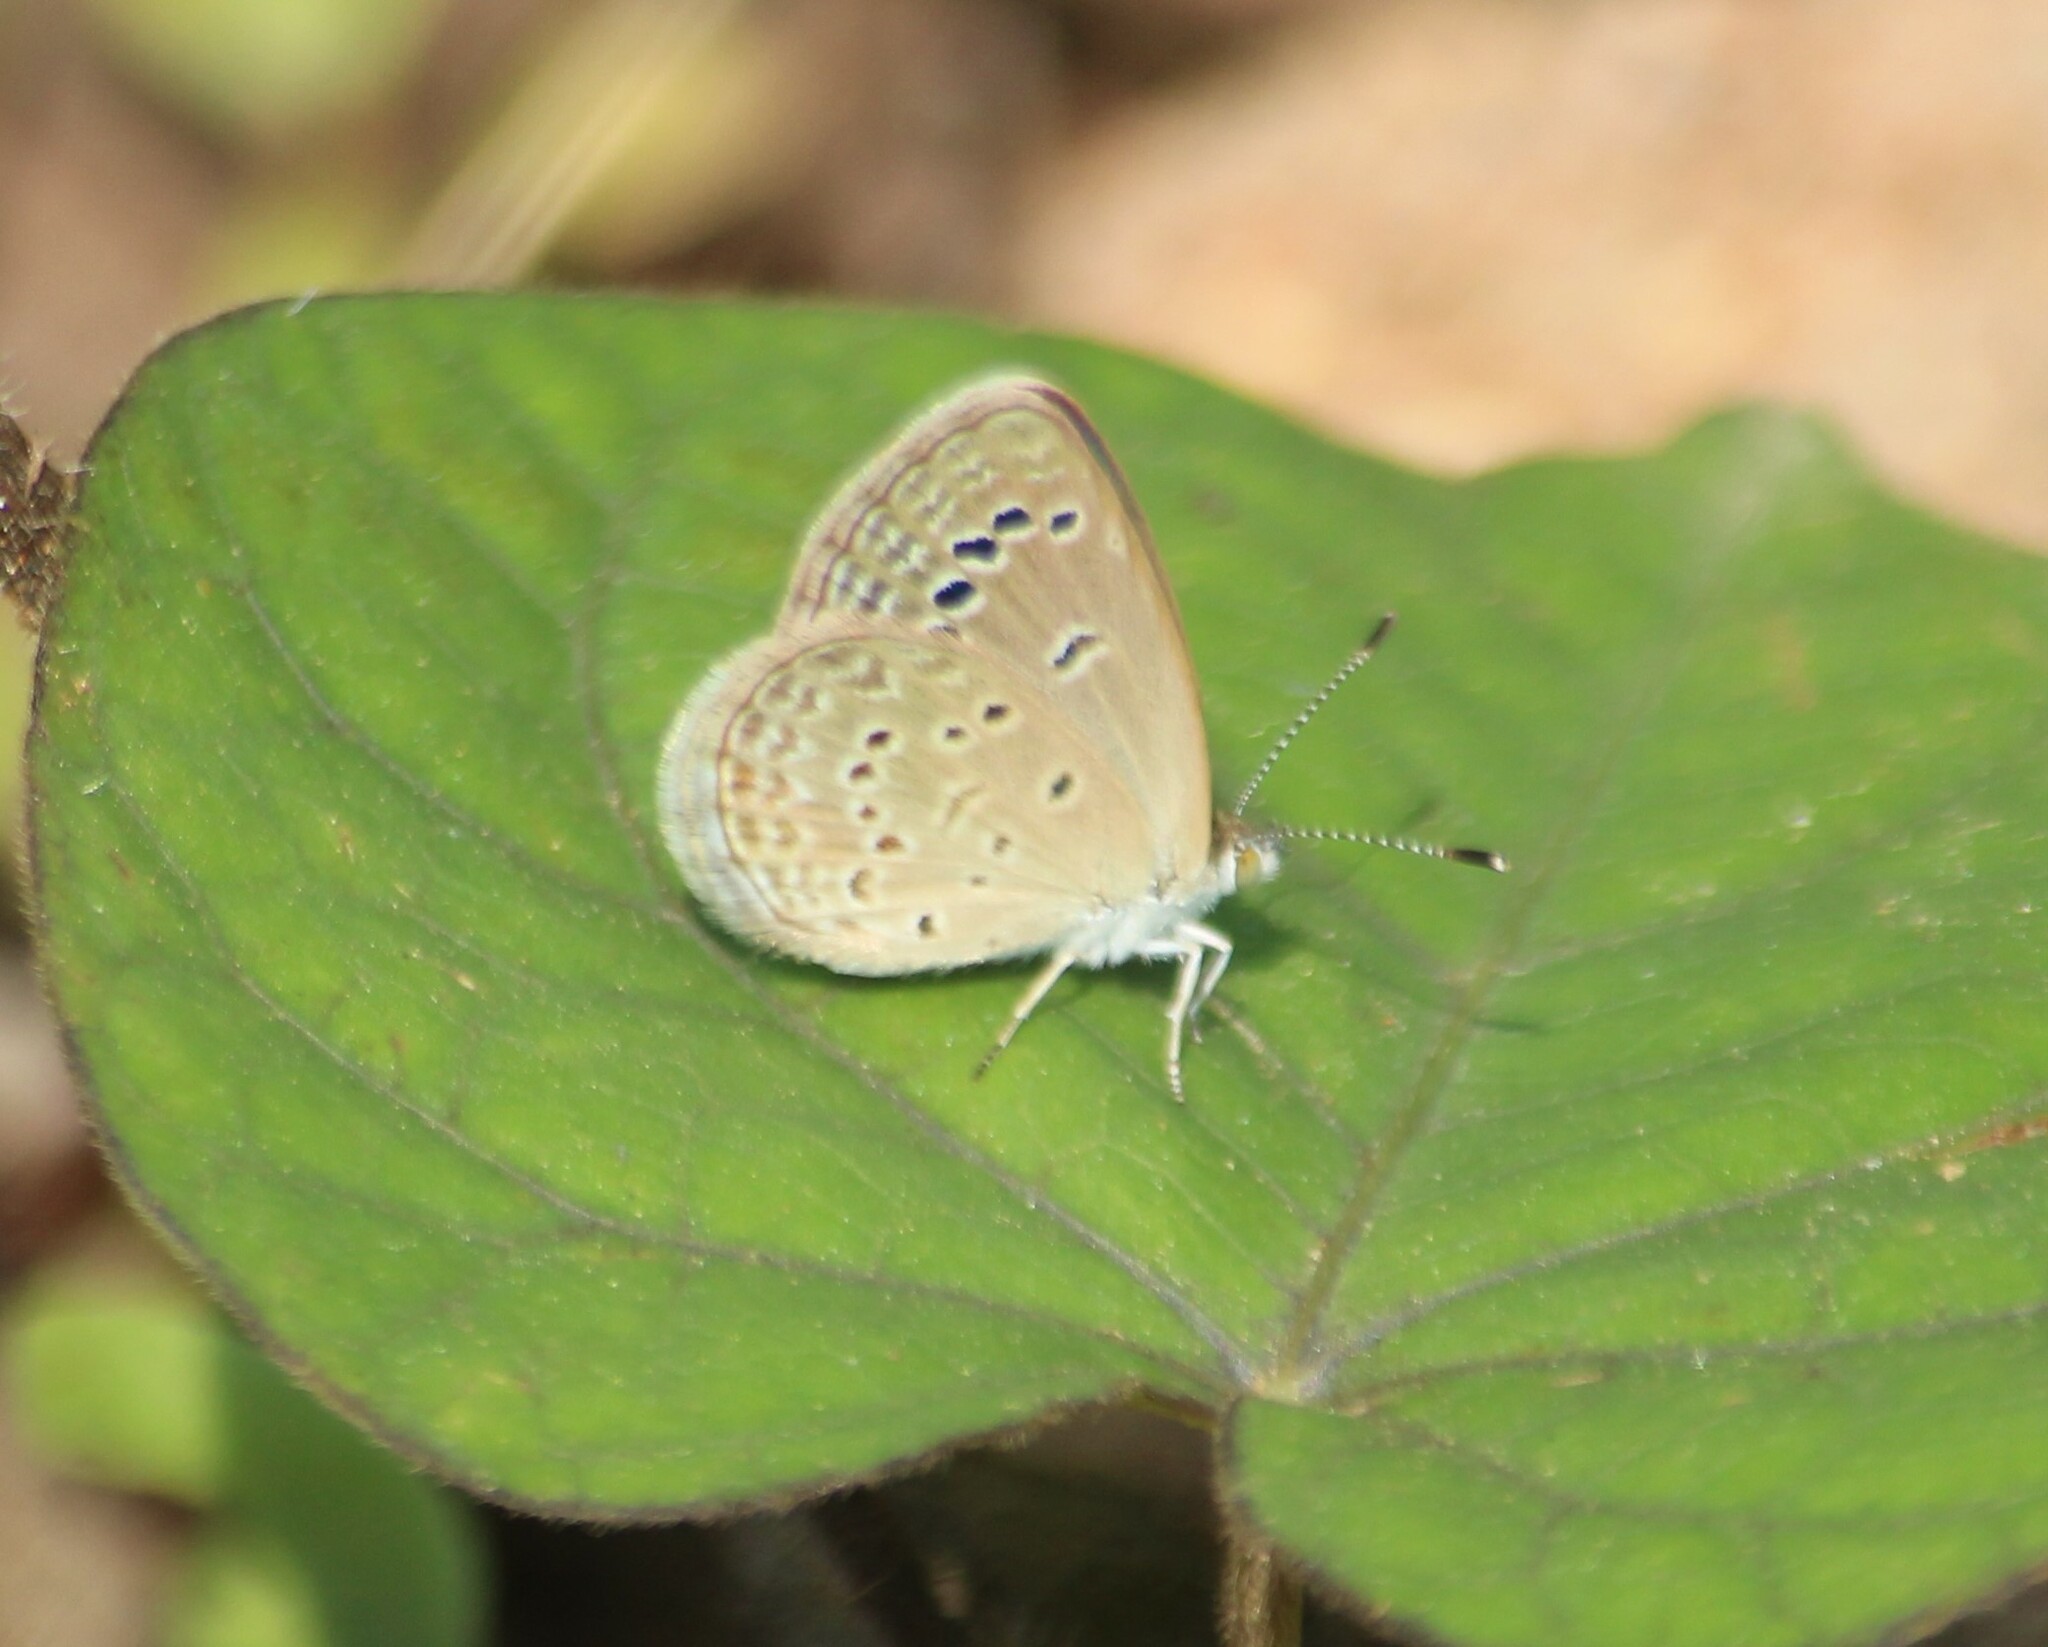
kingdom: Animalia
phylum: Arthropoda
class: Insecta
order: Lepidoptera
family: Lycaenidae
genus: Zizina
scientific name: Zizina otis
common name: Lesser grass blue
